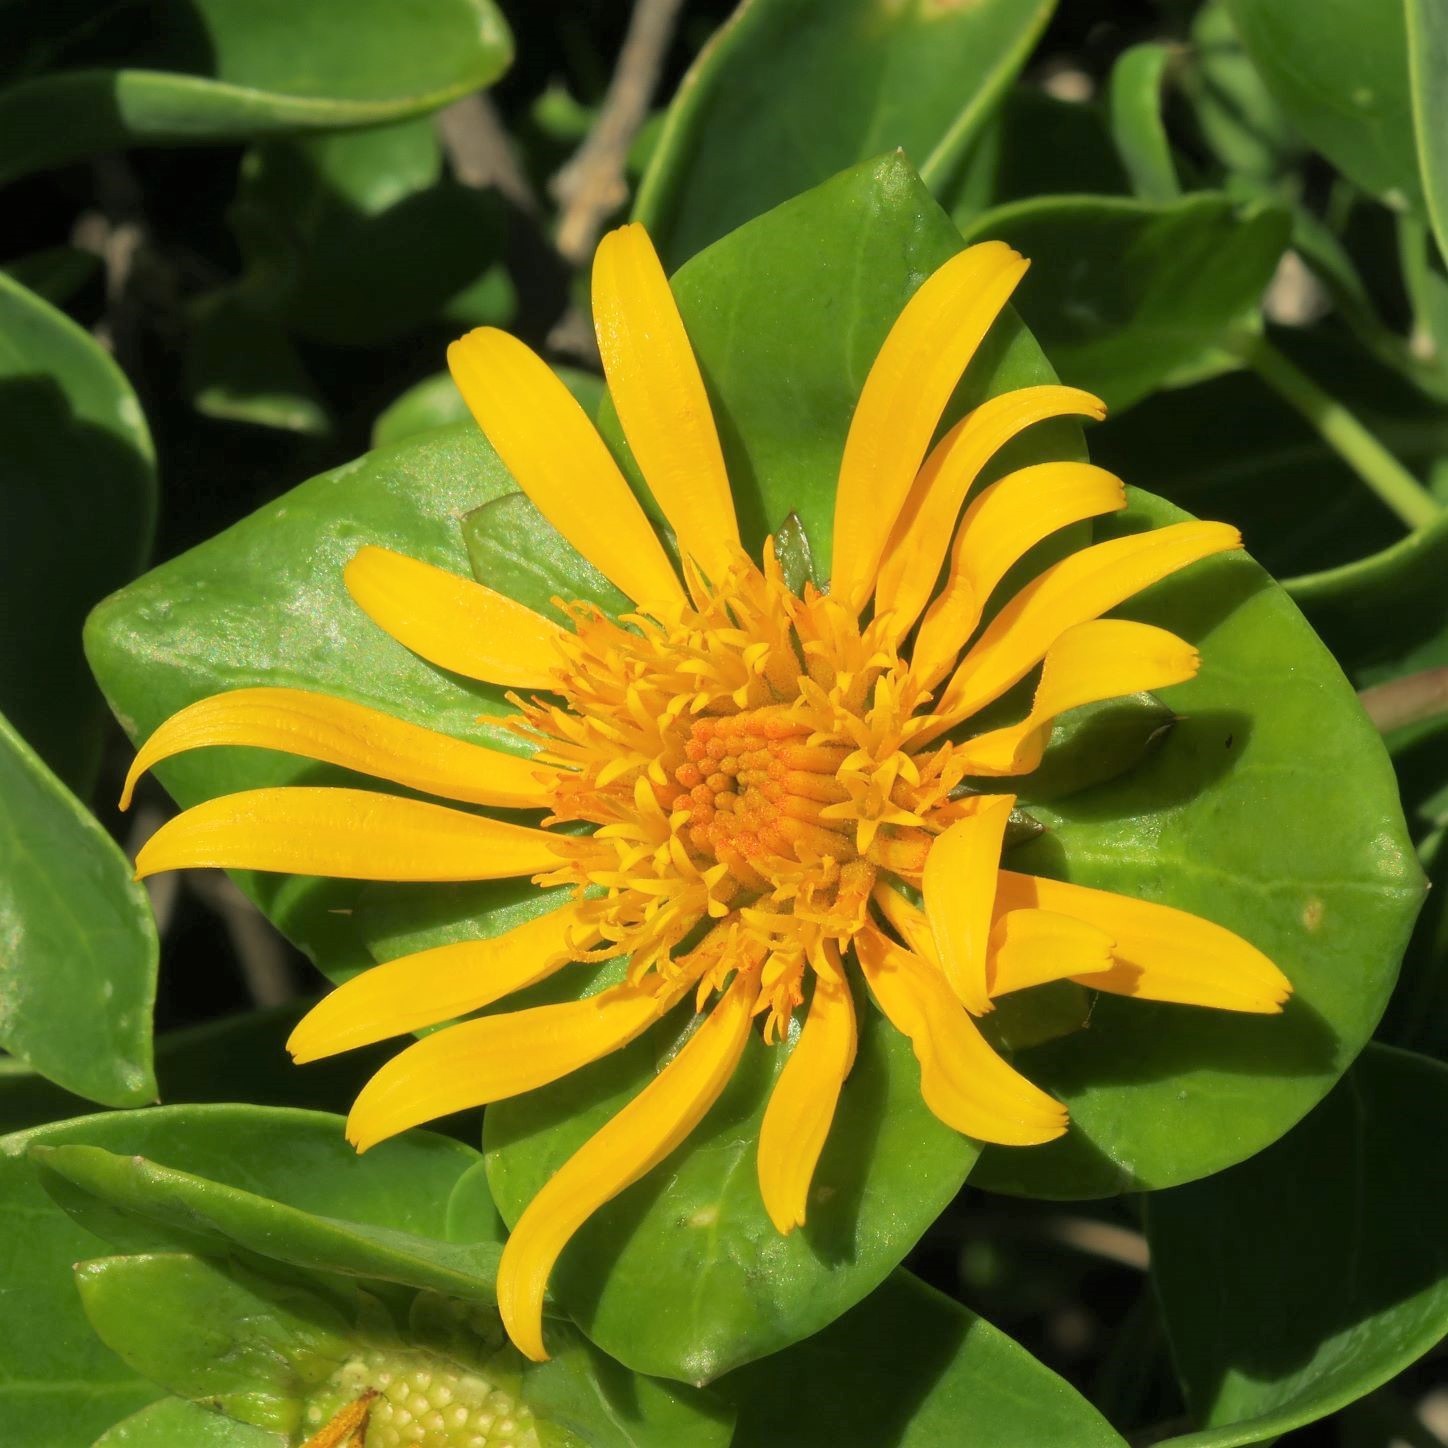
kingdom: Plantae
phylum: Tracheophyta
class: Magnoliopsida
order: Asterales
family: Asteraceae
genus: Didelta
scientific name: Didelta spinosa
